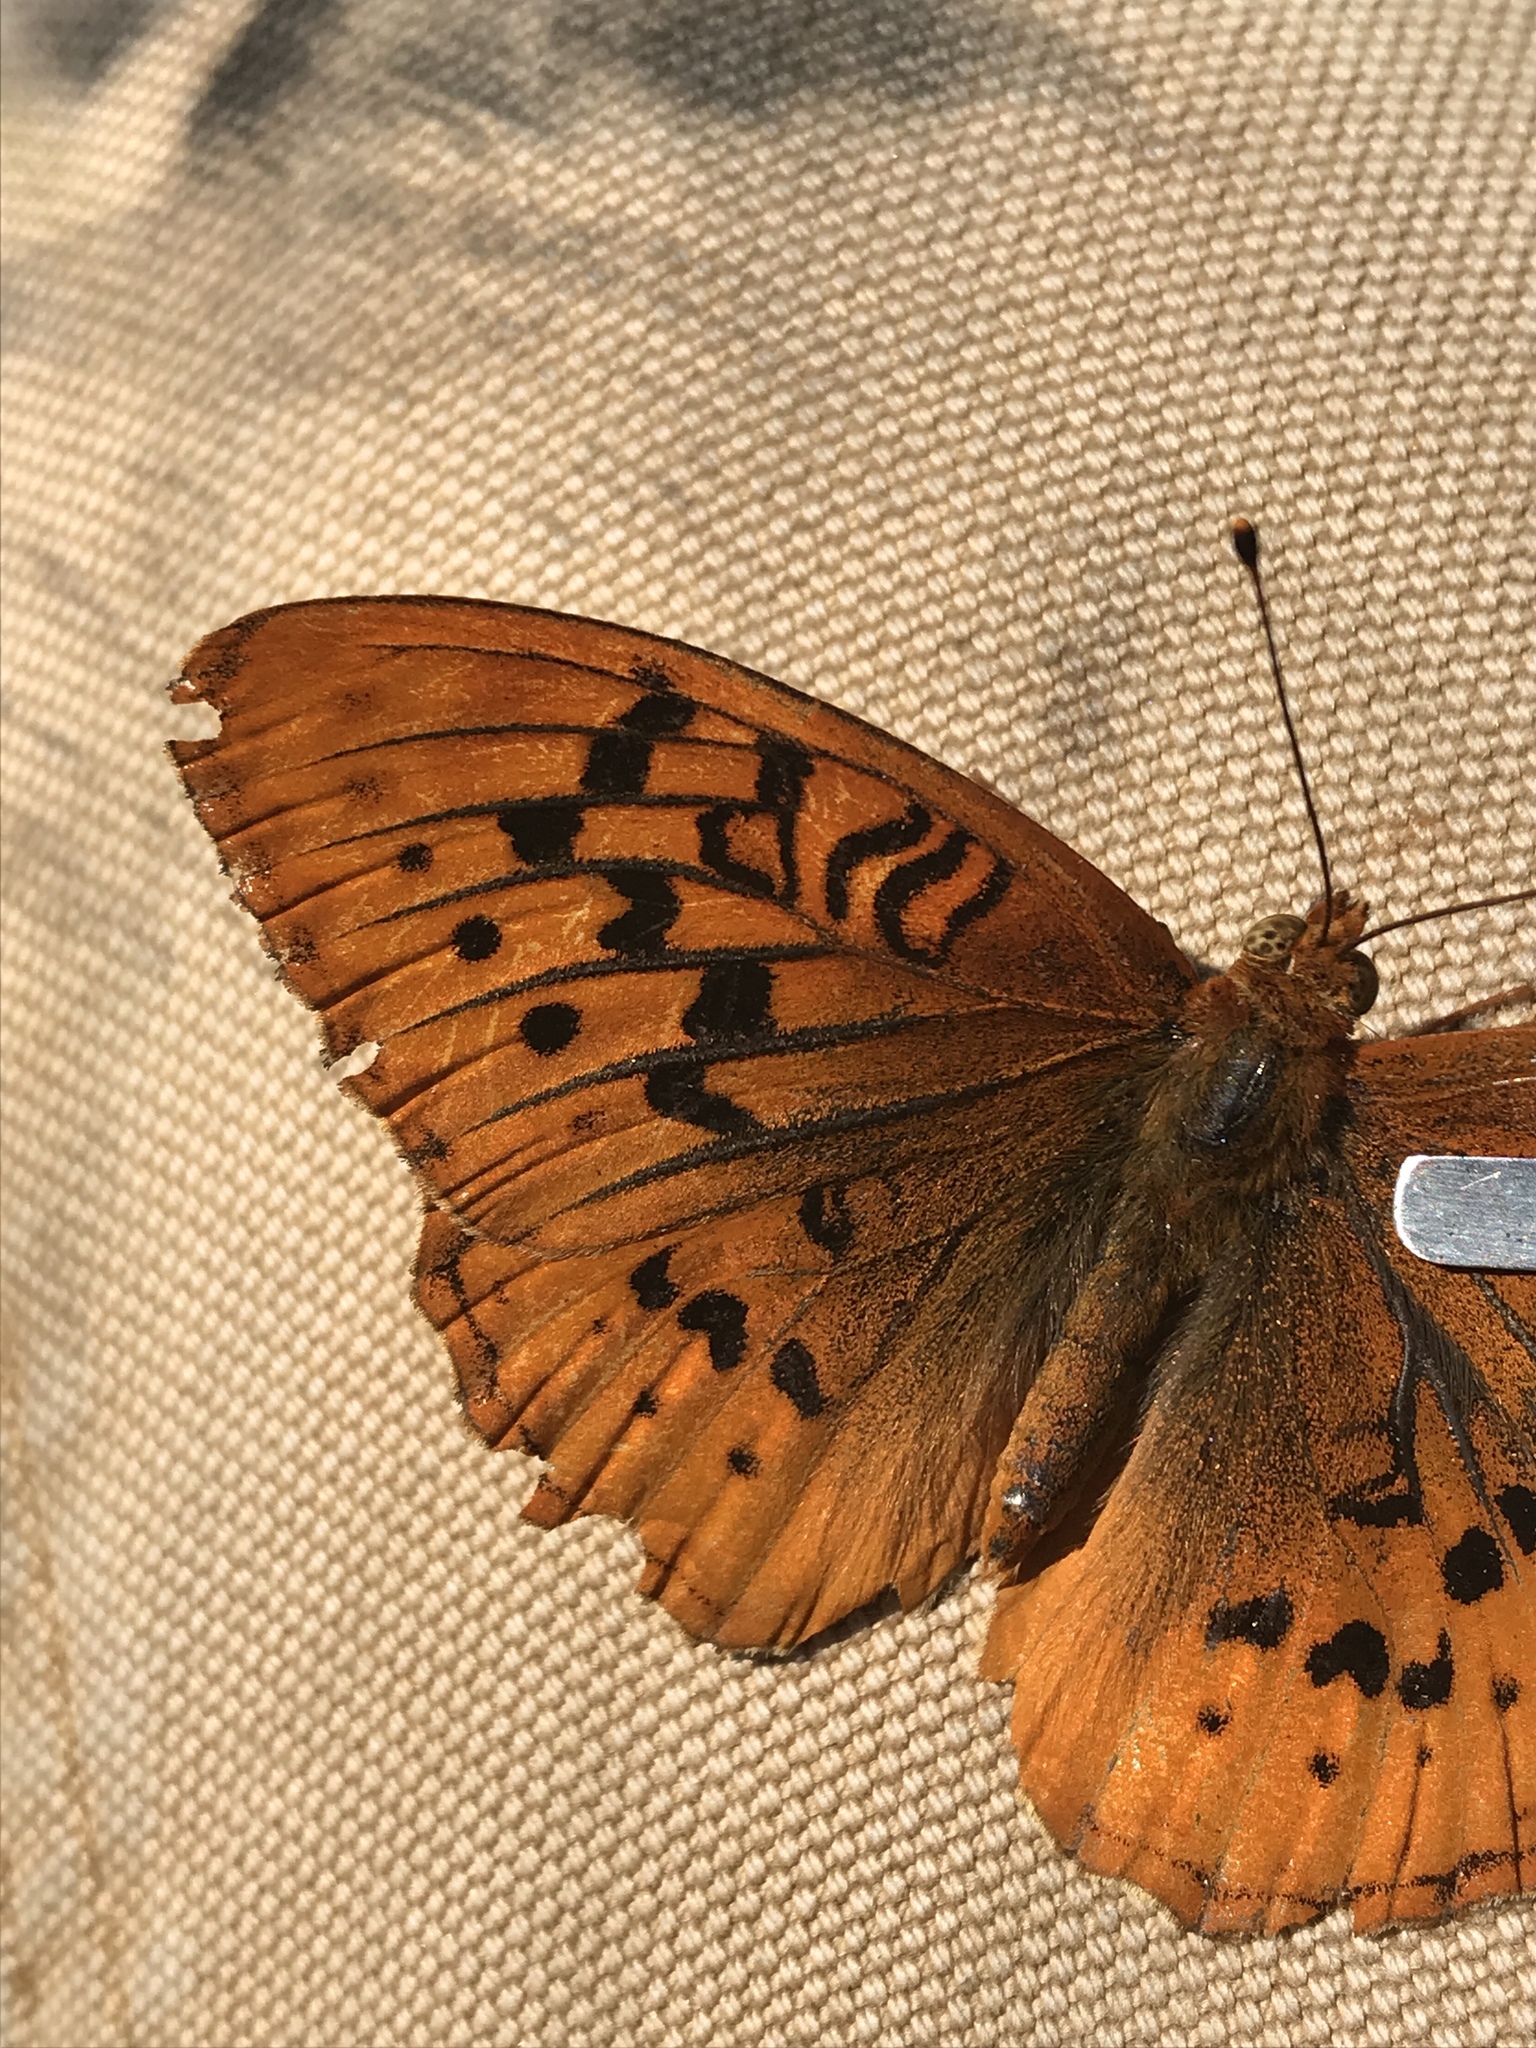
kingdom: Animalia
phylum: Arthropoda
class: Insecta
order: Lepidoptera
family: Nymphalidae
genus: Speyeria
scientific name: Speyeria cybele
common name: Great spangled fritillary
